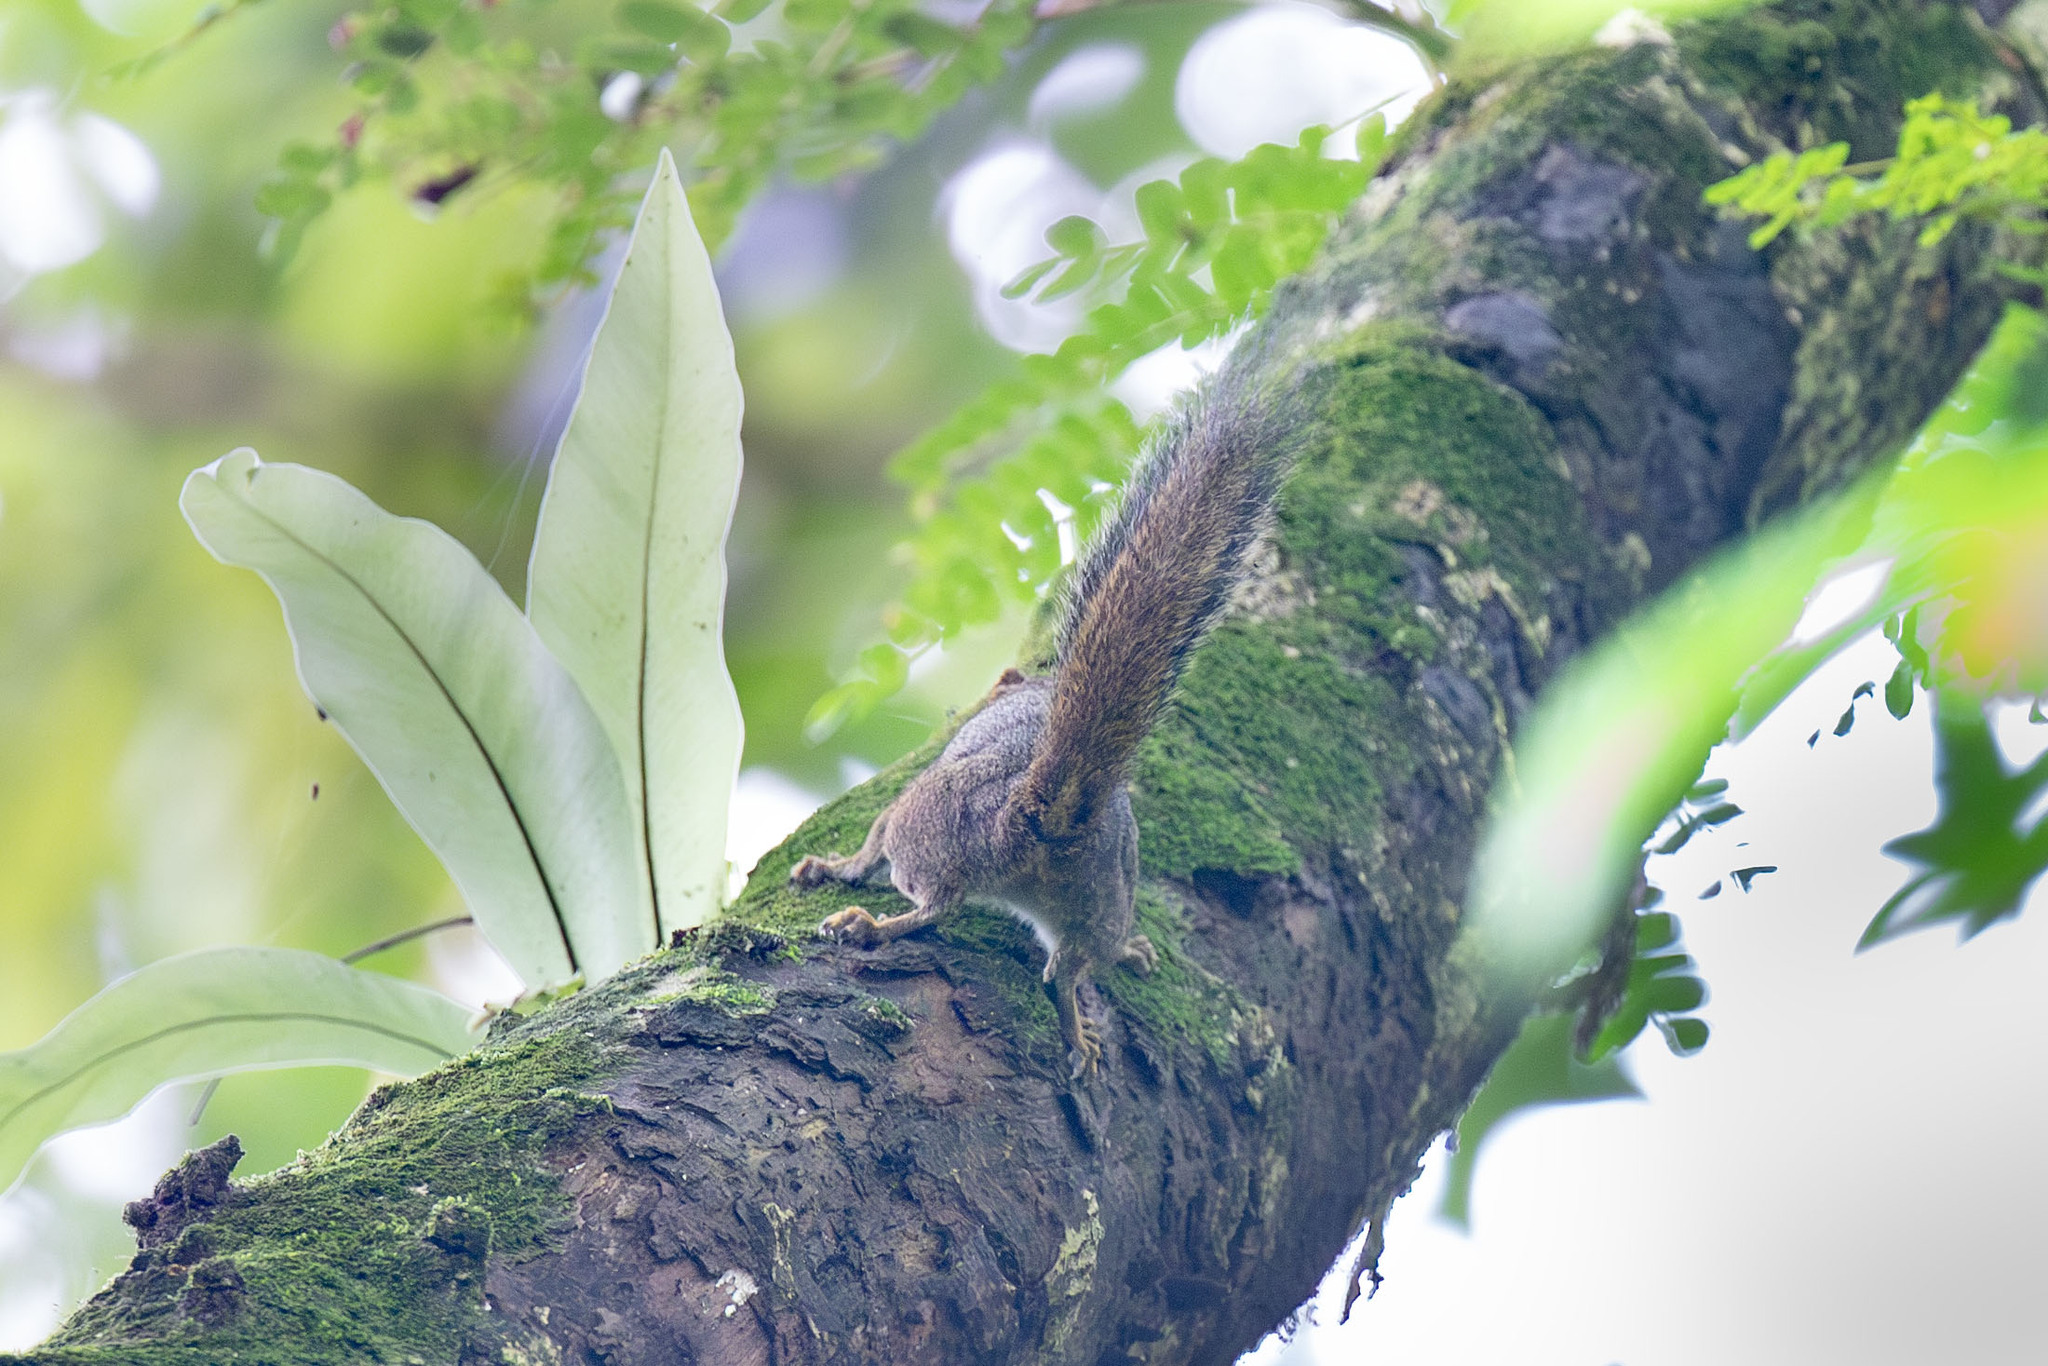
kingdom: Animalia
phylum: Chordata
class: Mammalia
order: Rodentia
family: Sciuridae
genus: Sundasciurus
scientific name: Sundasciurus tenuis
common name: Slender squirrel
